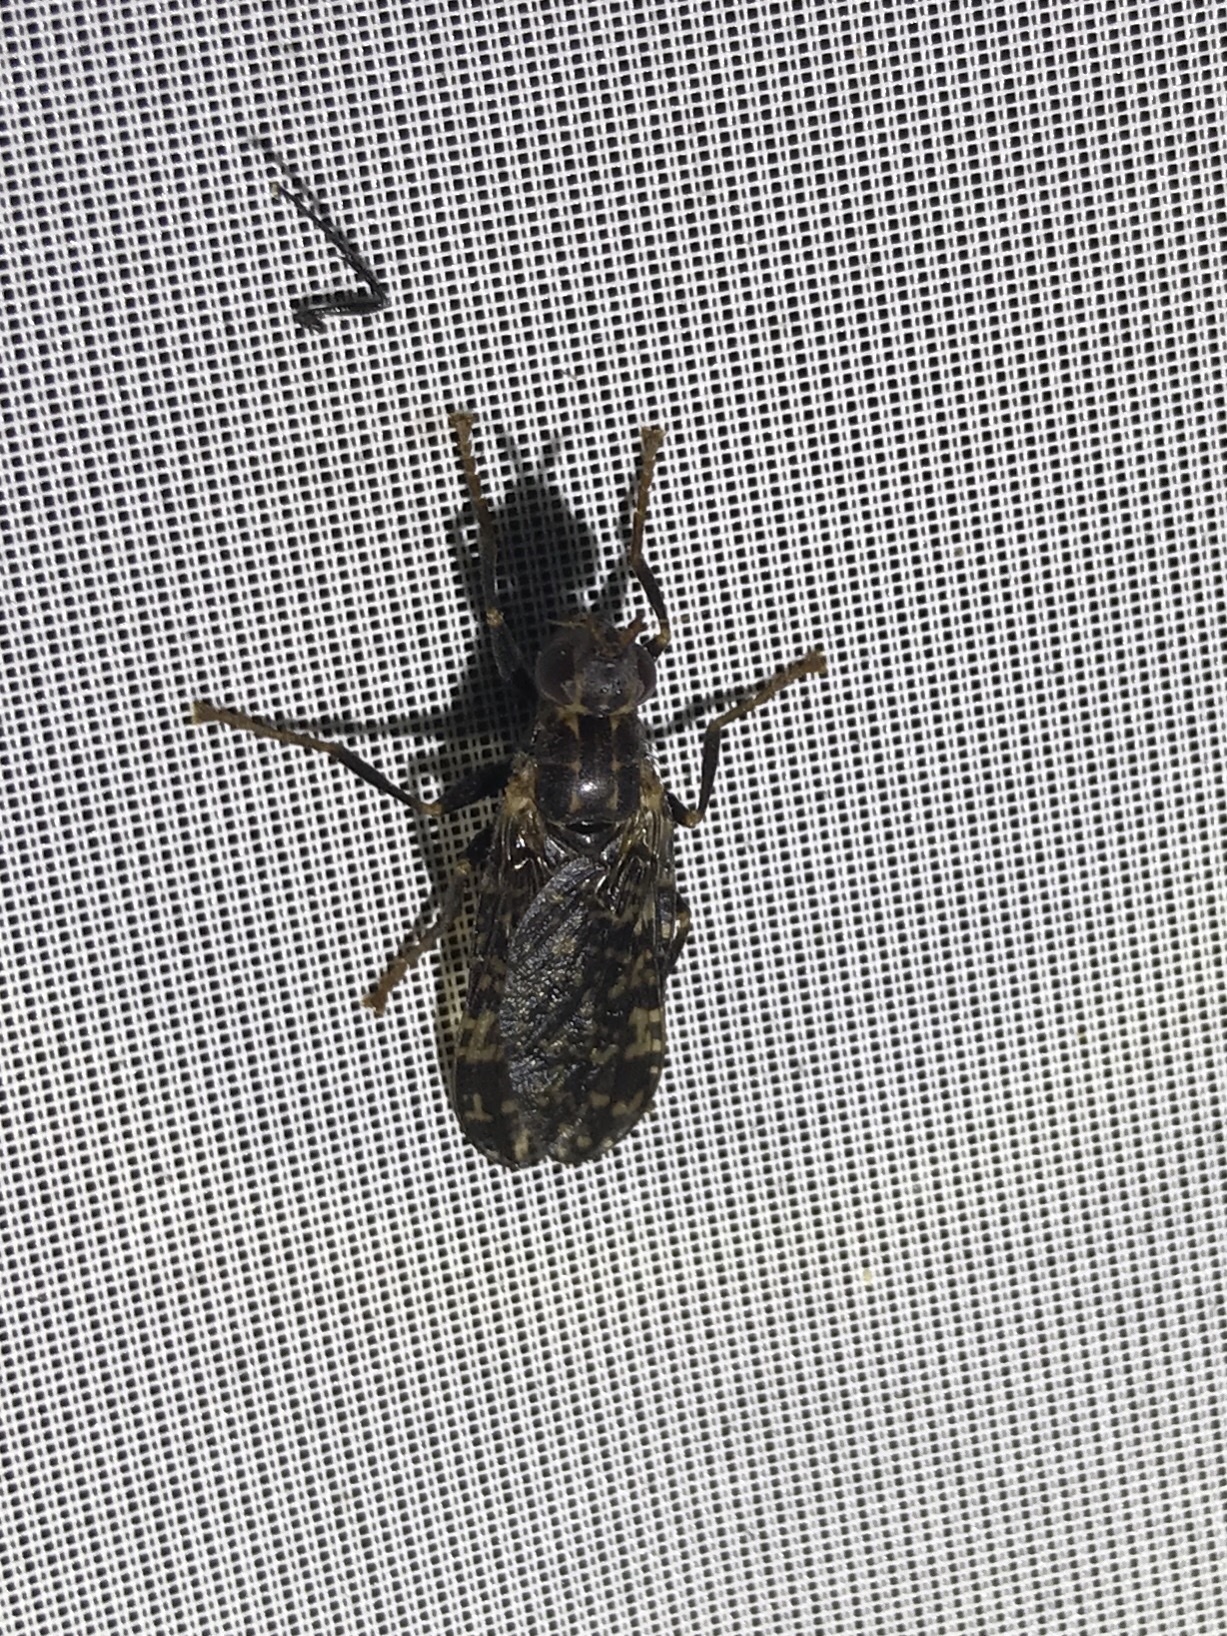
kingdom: Animalia
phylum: Arthropoda
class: Insecta
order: Diptera
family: Pyrgotidae
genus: Pyrgota
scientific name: Pyrgota valida
